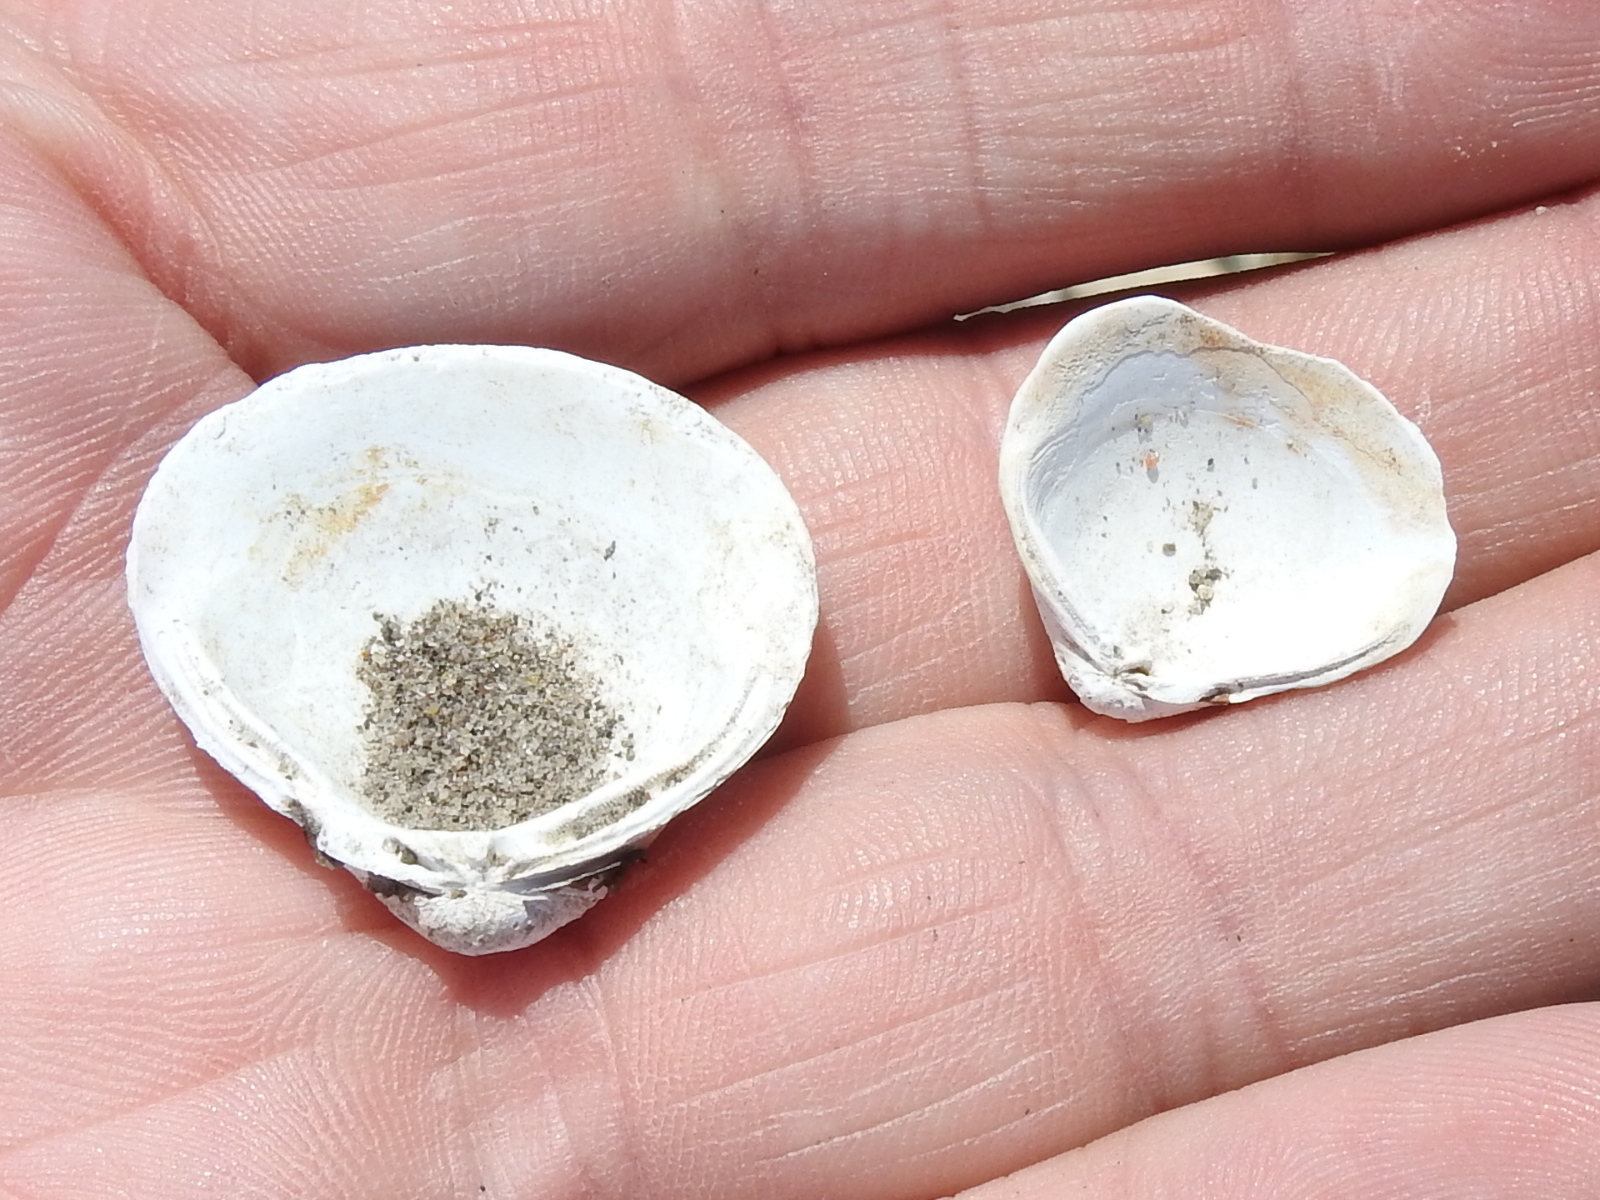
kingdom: Animalia
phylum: Mollusca
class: Bivalvia
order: Venerida
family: Cyrenidae
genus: Corbicula
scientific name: Corbicula fluminea
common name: Asian clam
